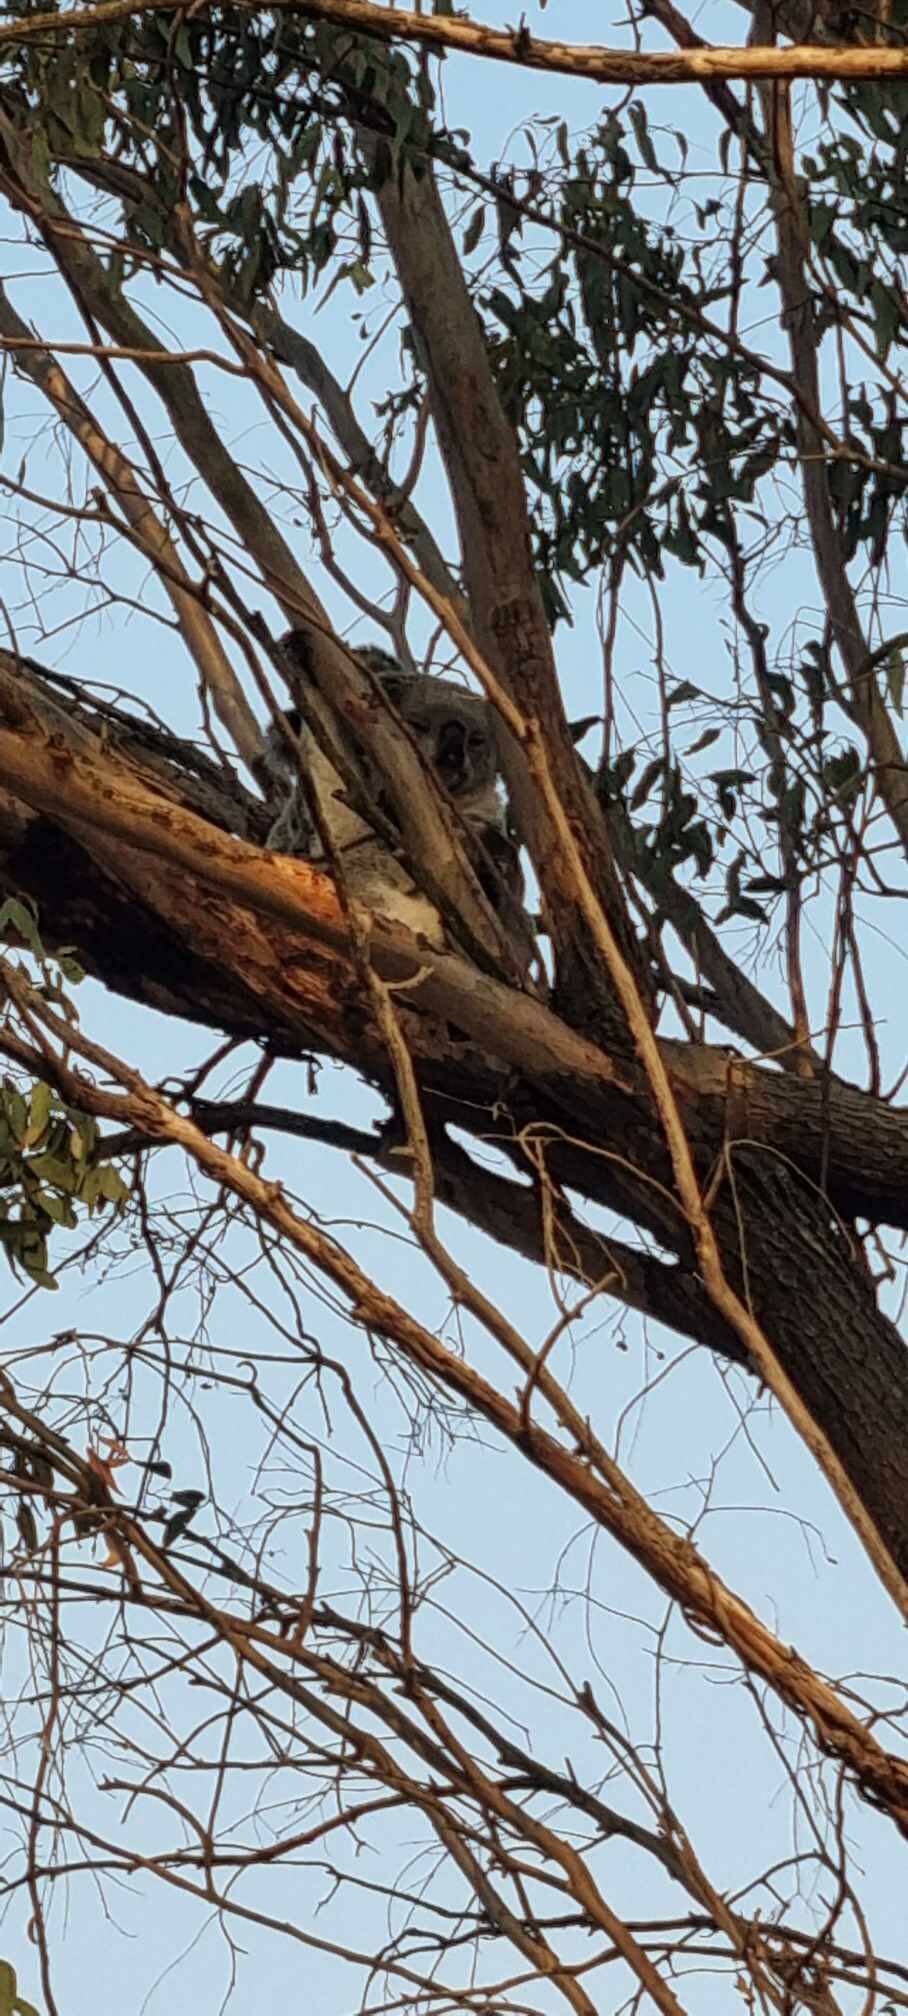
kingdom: Animalia
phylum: Chordata
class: Mammalia
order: Diprotodontia
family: Phascolarctidae
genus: Phascolarctos
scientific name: Phascolarctos cinereus
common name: Koala
